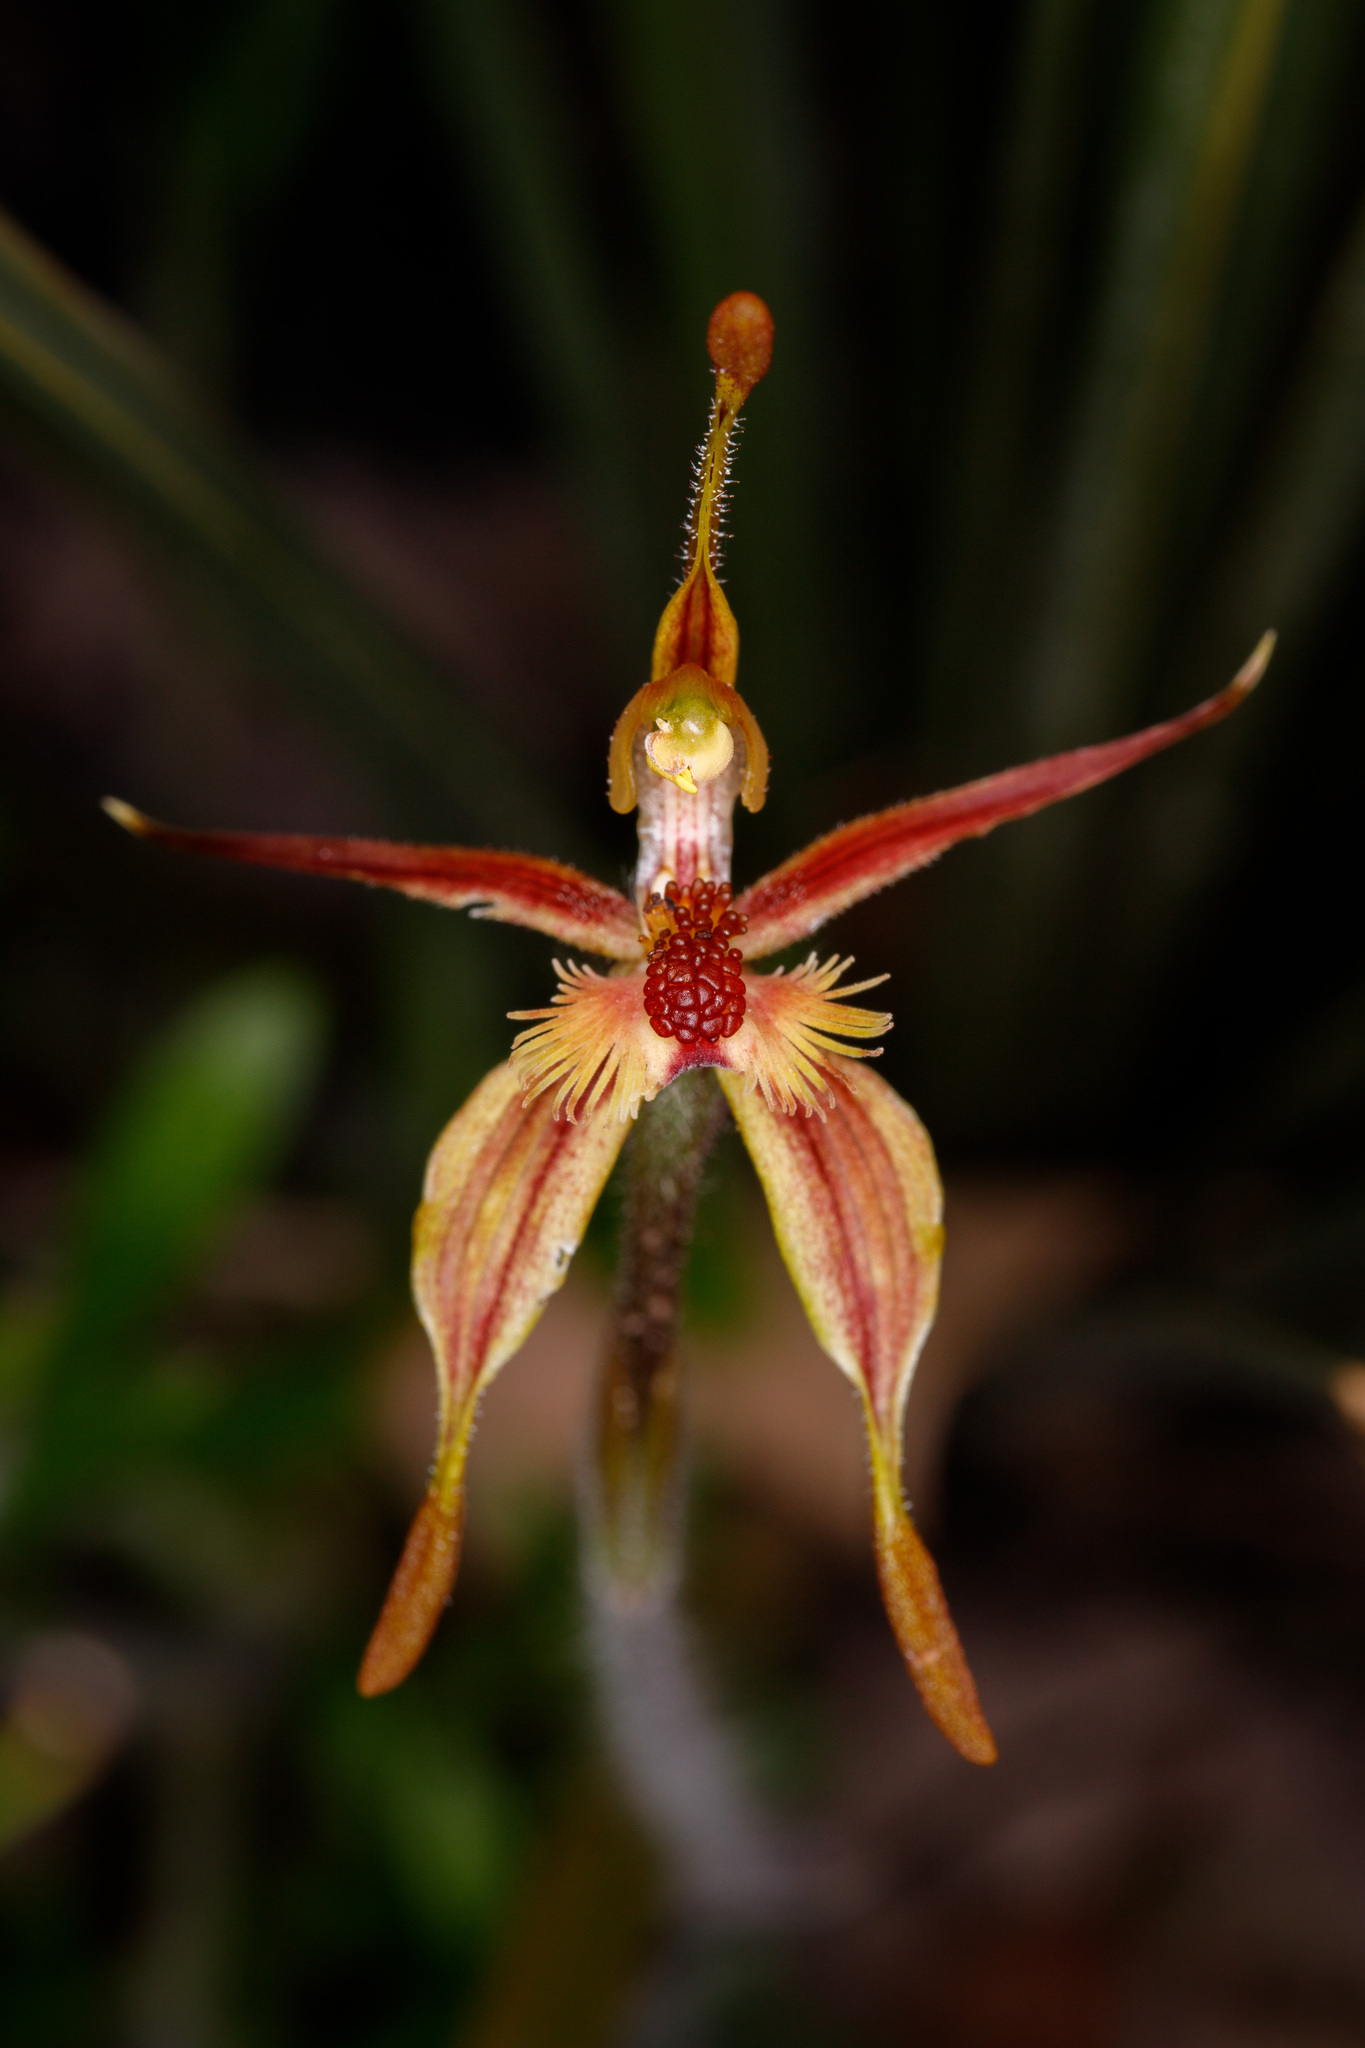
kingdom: Plantae
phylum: Tracheophyta
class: Liliopsida
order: Asparagales
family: Orchidaceae
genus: Caladenia
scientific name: Caladenia plicata
